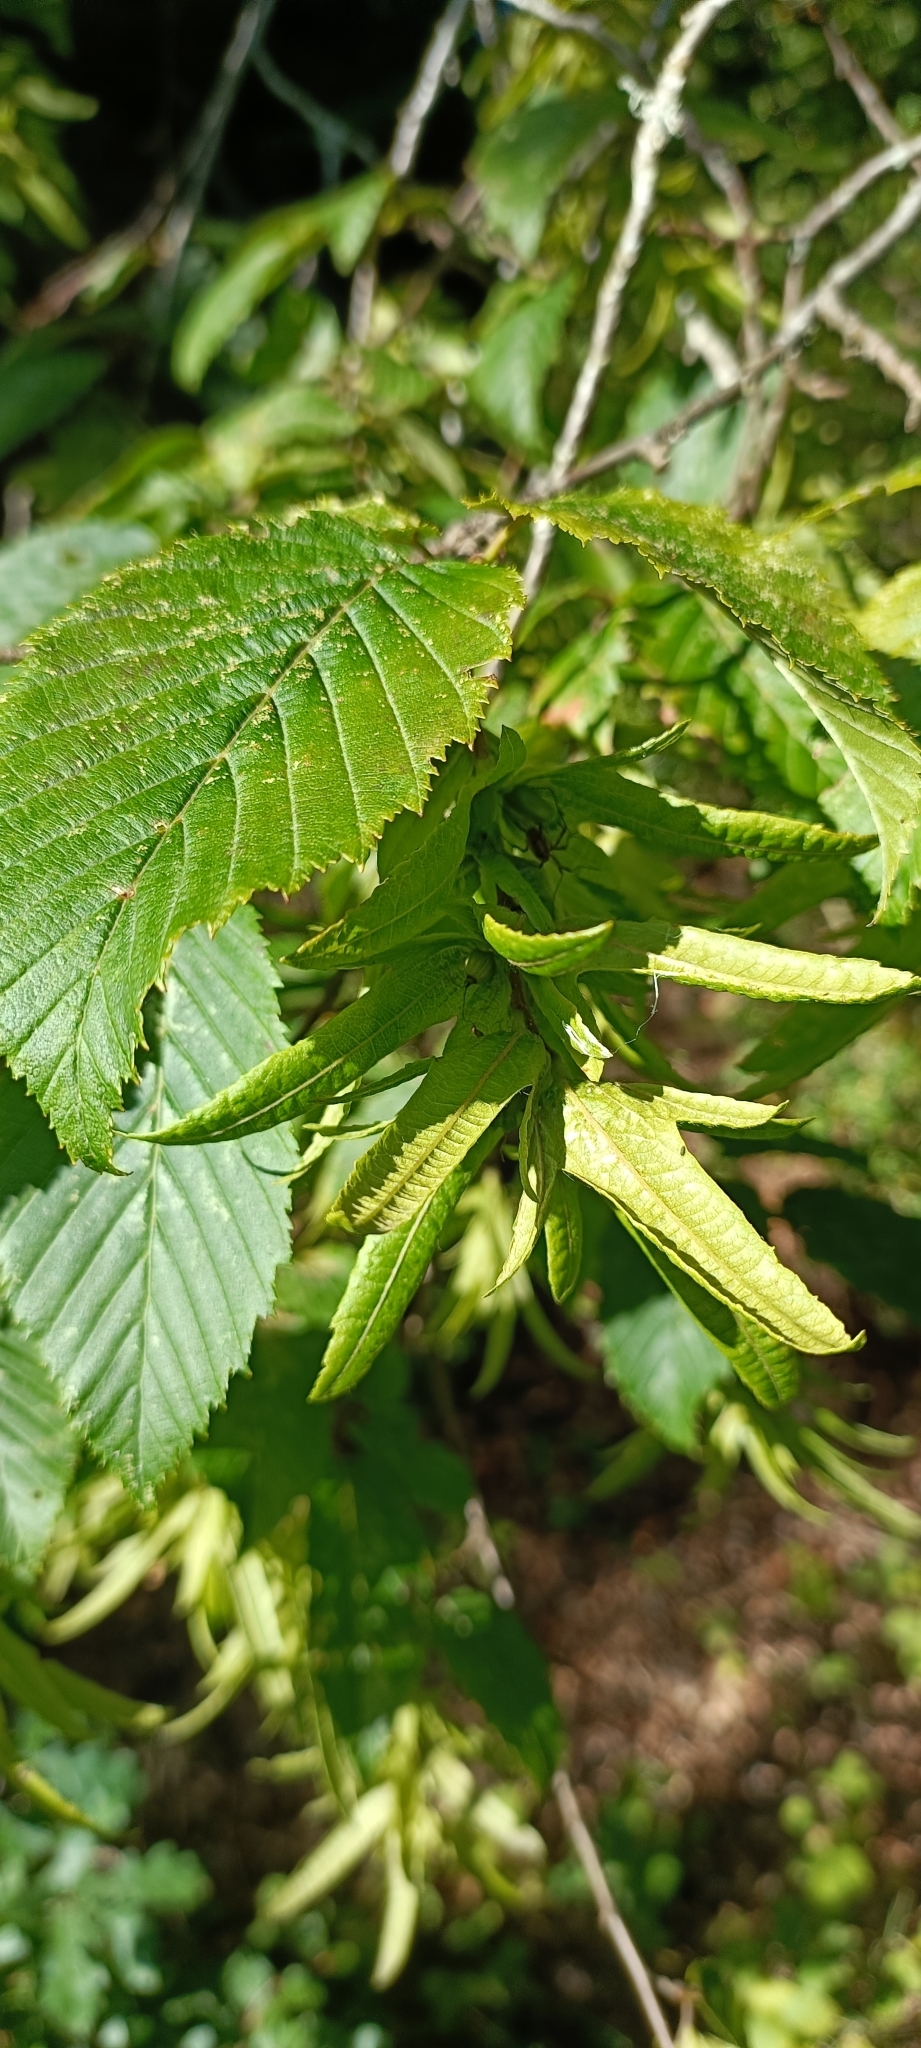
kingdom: Plantae
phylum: Tracheophyta
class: Magnoliopsida
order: Fagales
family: Betulaceae
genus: Carpinus
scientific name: Carpinus betulus
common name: Hornbeam
